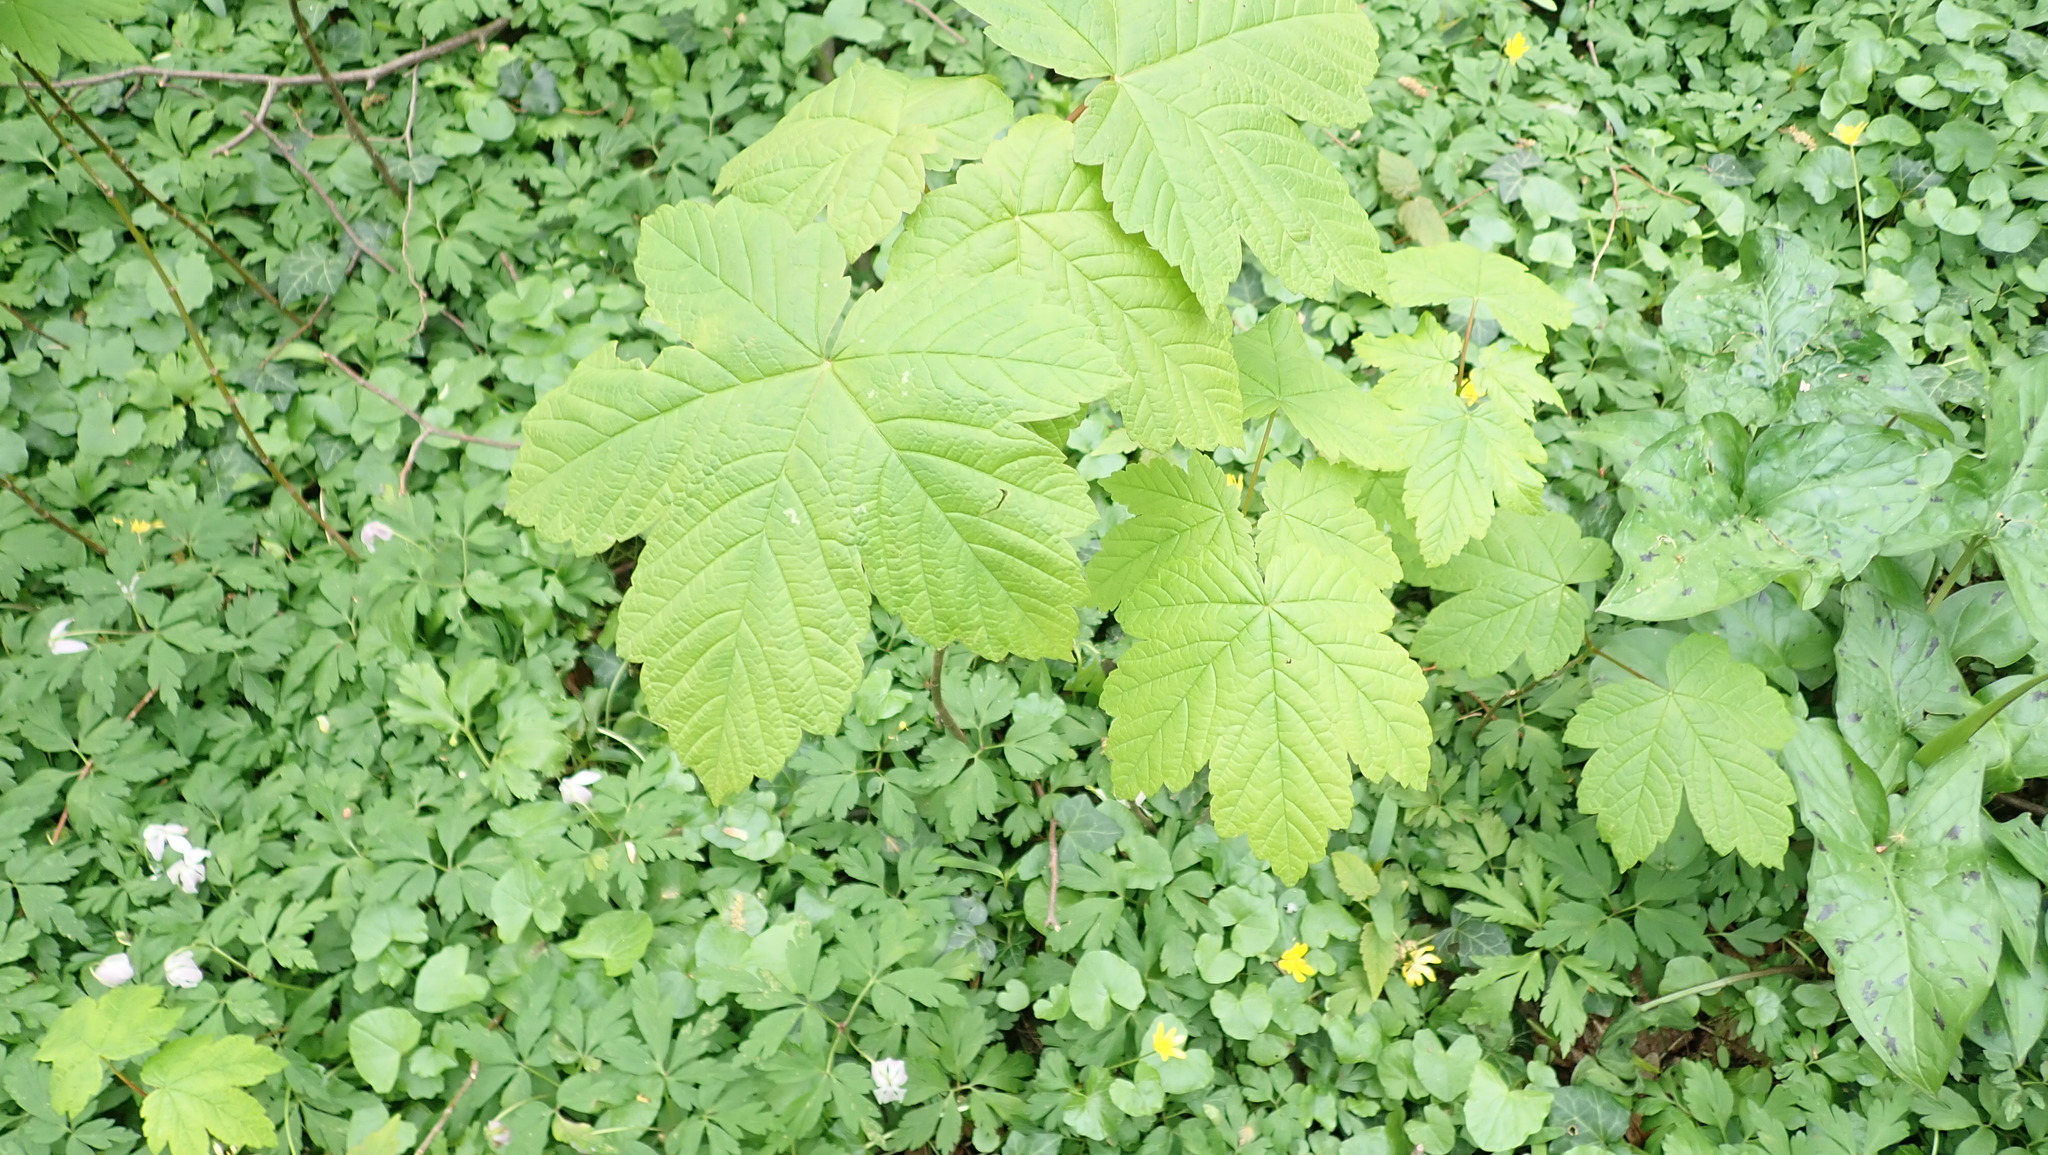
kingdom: Plantae
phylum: Tracheophyta
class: Magnoliopsida
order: Sapindales
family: Sapindaceae
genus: Acer
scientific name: Acer pseudoplatanus
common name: Sycamore
